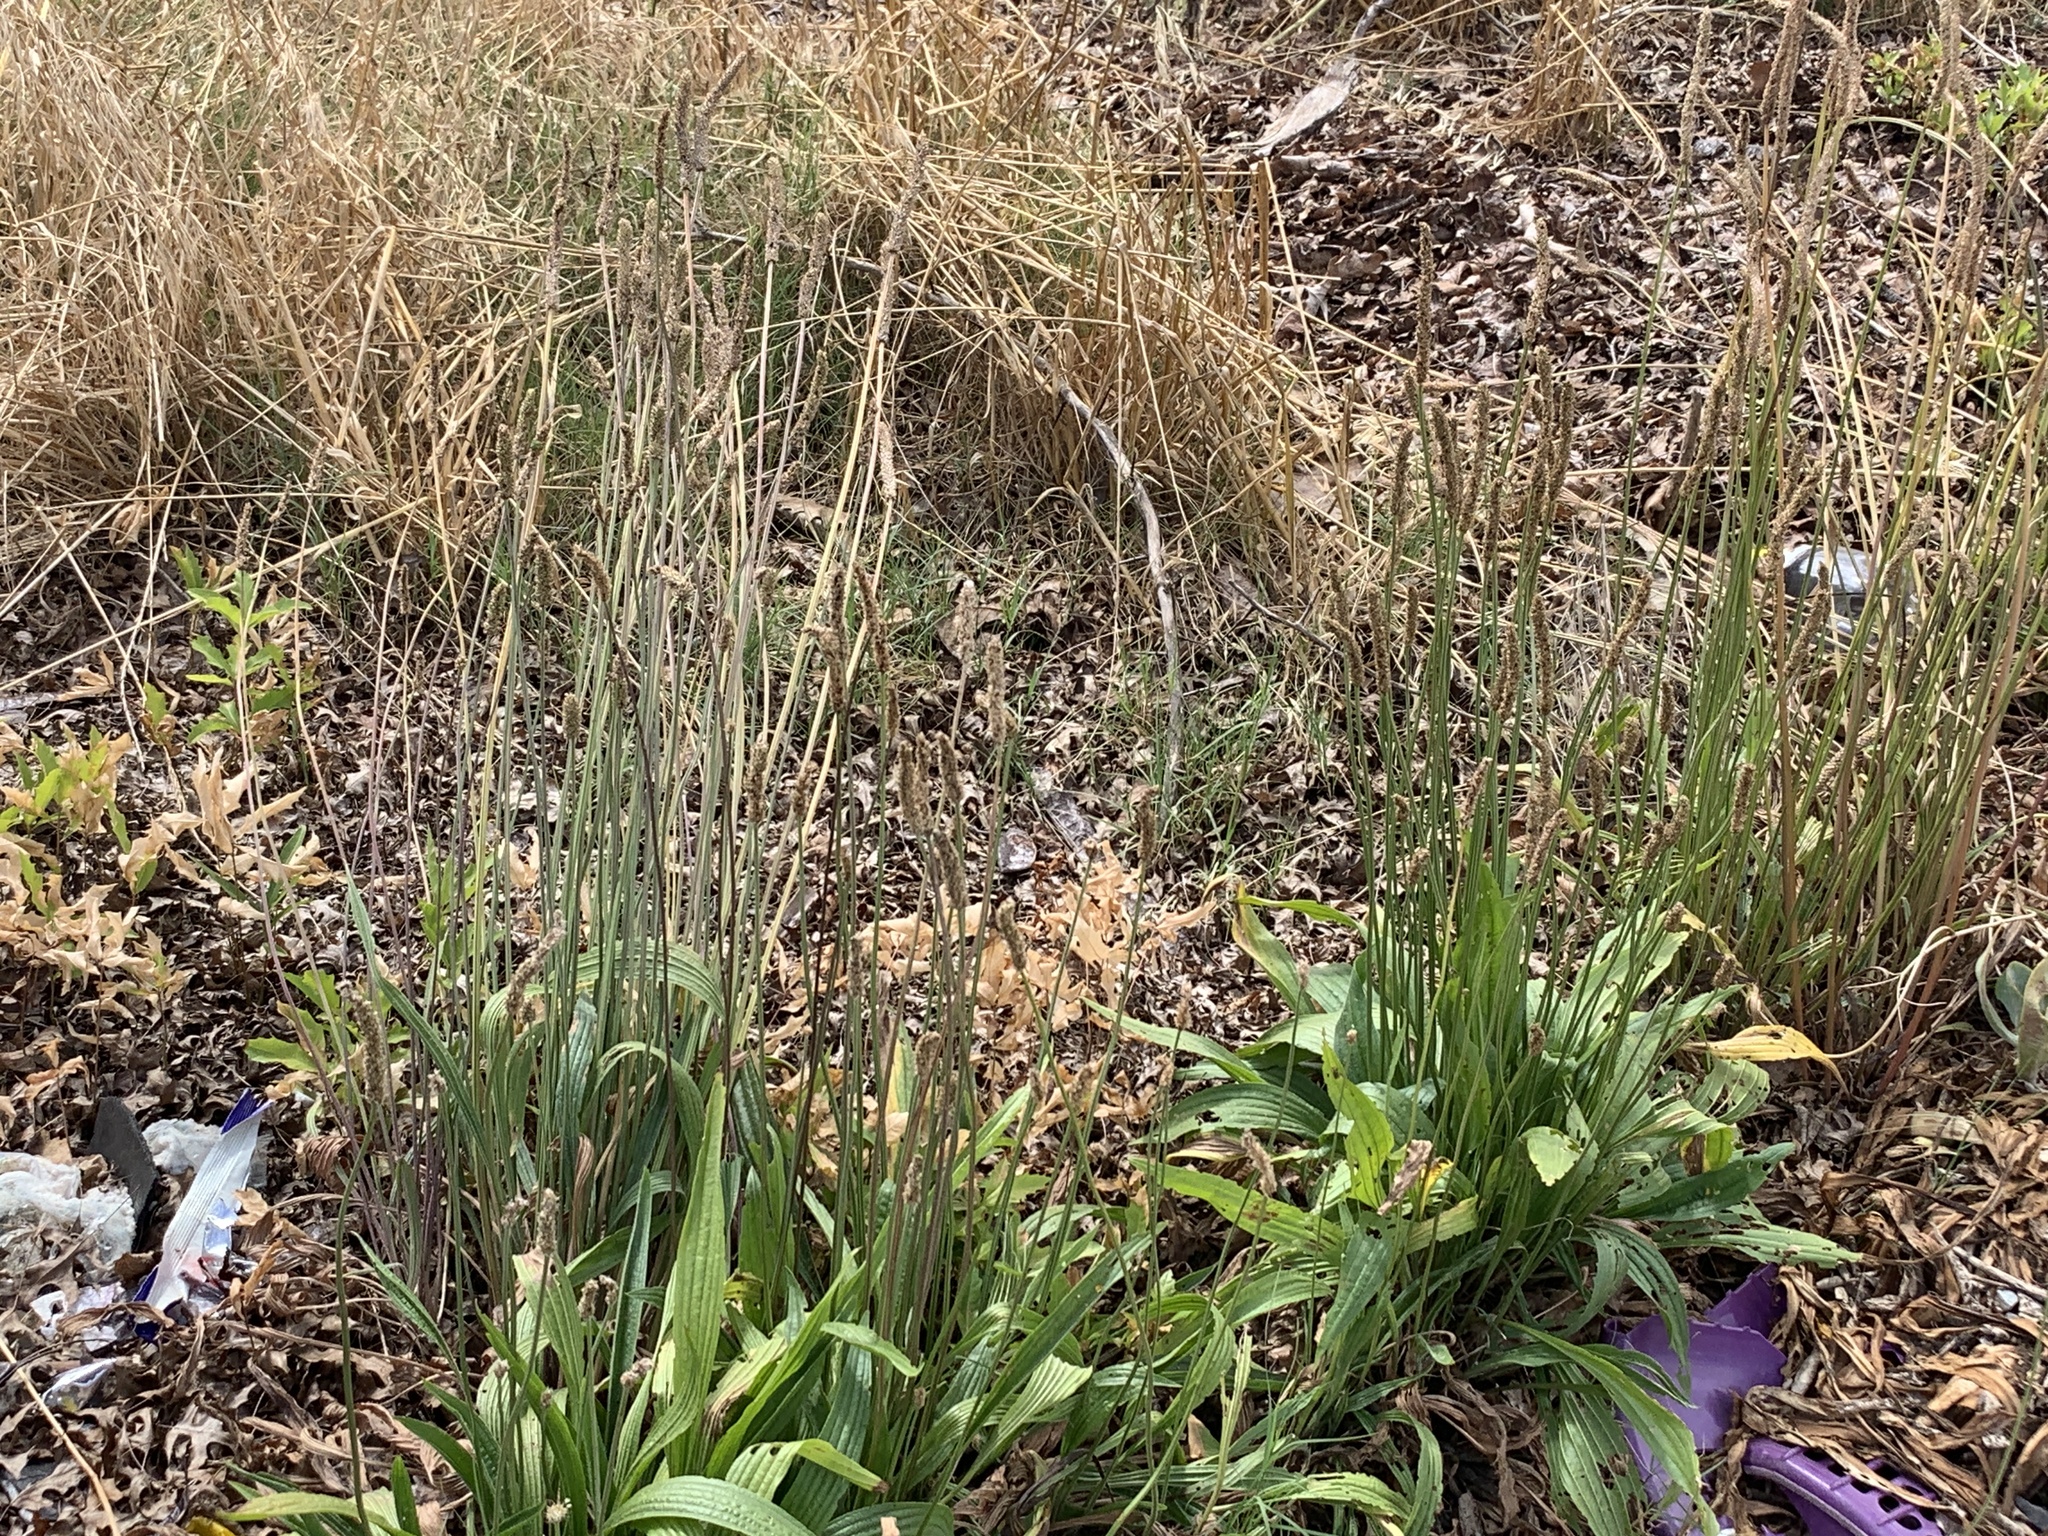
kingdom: Plantae
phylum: Tracheophyta
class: Magnoliopsida
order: Lamiales
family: Plantaginaceae
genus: Plantago
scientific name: Plantago lanceolata
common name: Ribwort plantain
